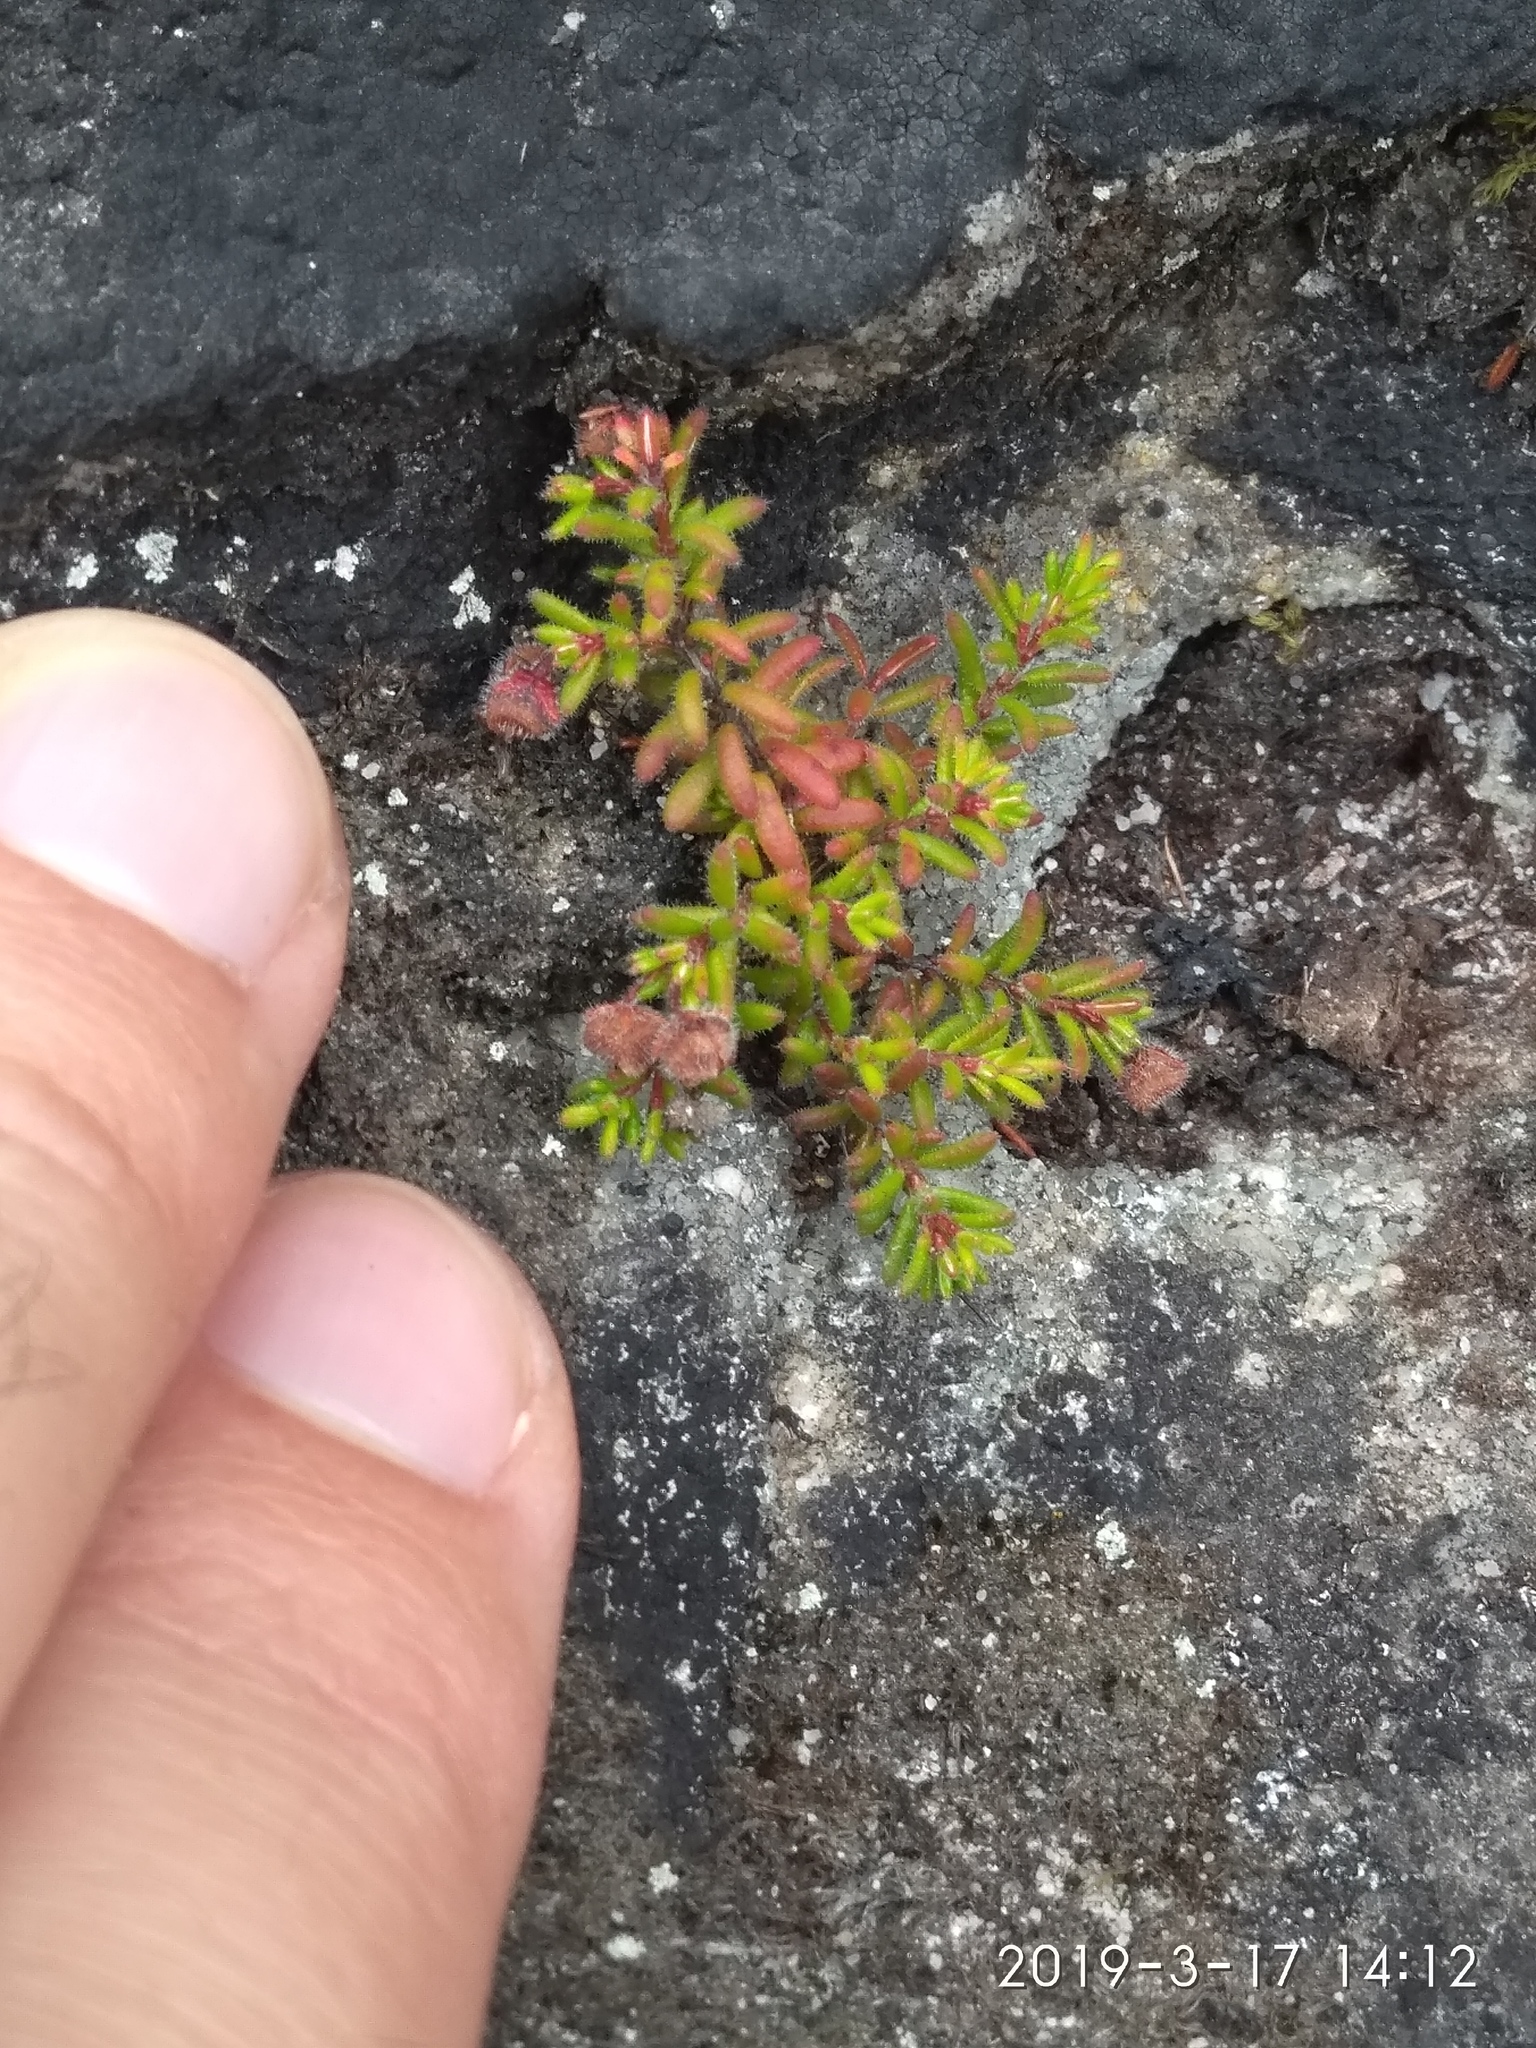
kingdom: Plantae
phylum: Tracheophyta
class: Magnoliopsida
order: Ericales
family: Ericaceae
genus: Erica
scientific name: Erica haematocodon
